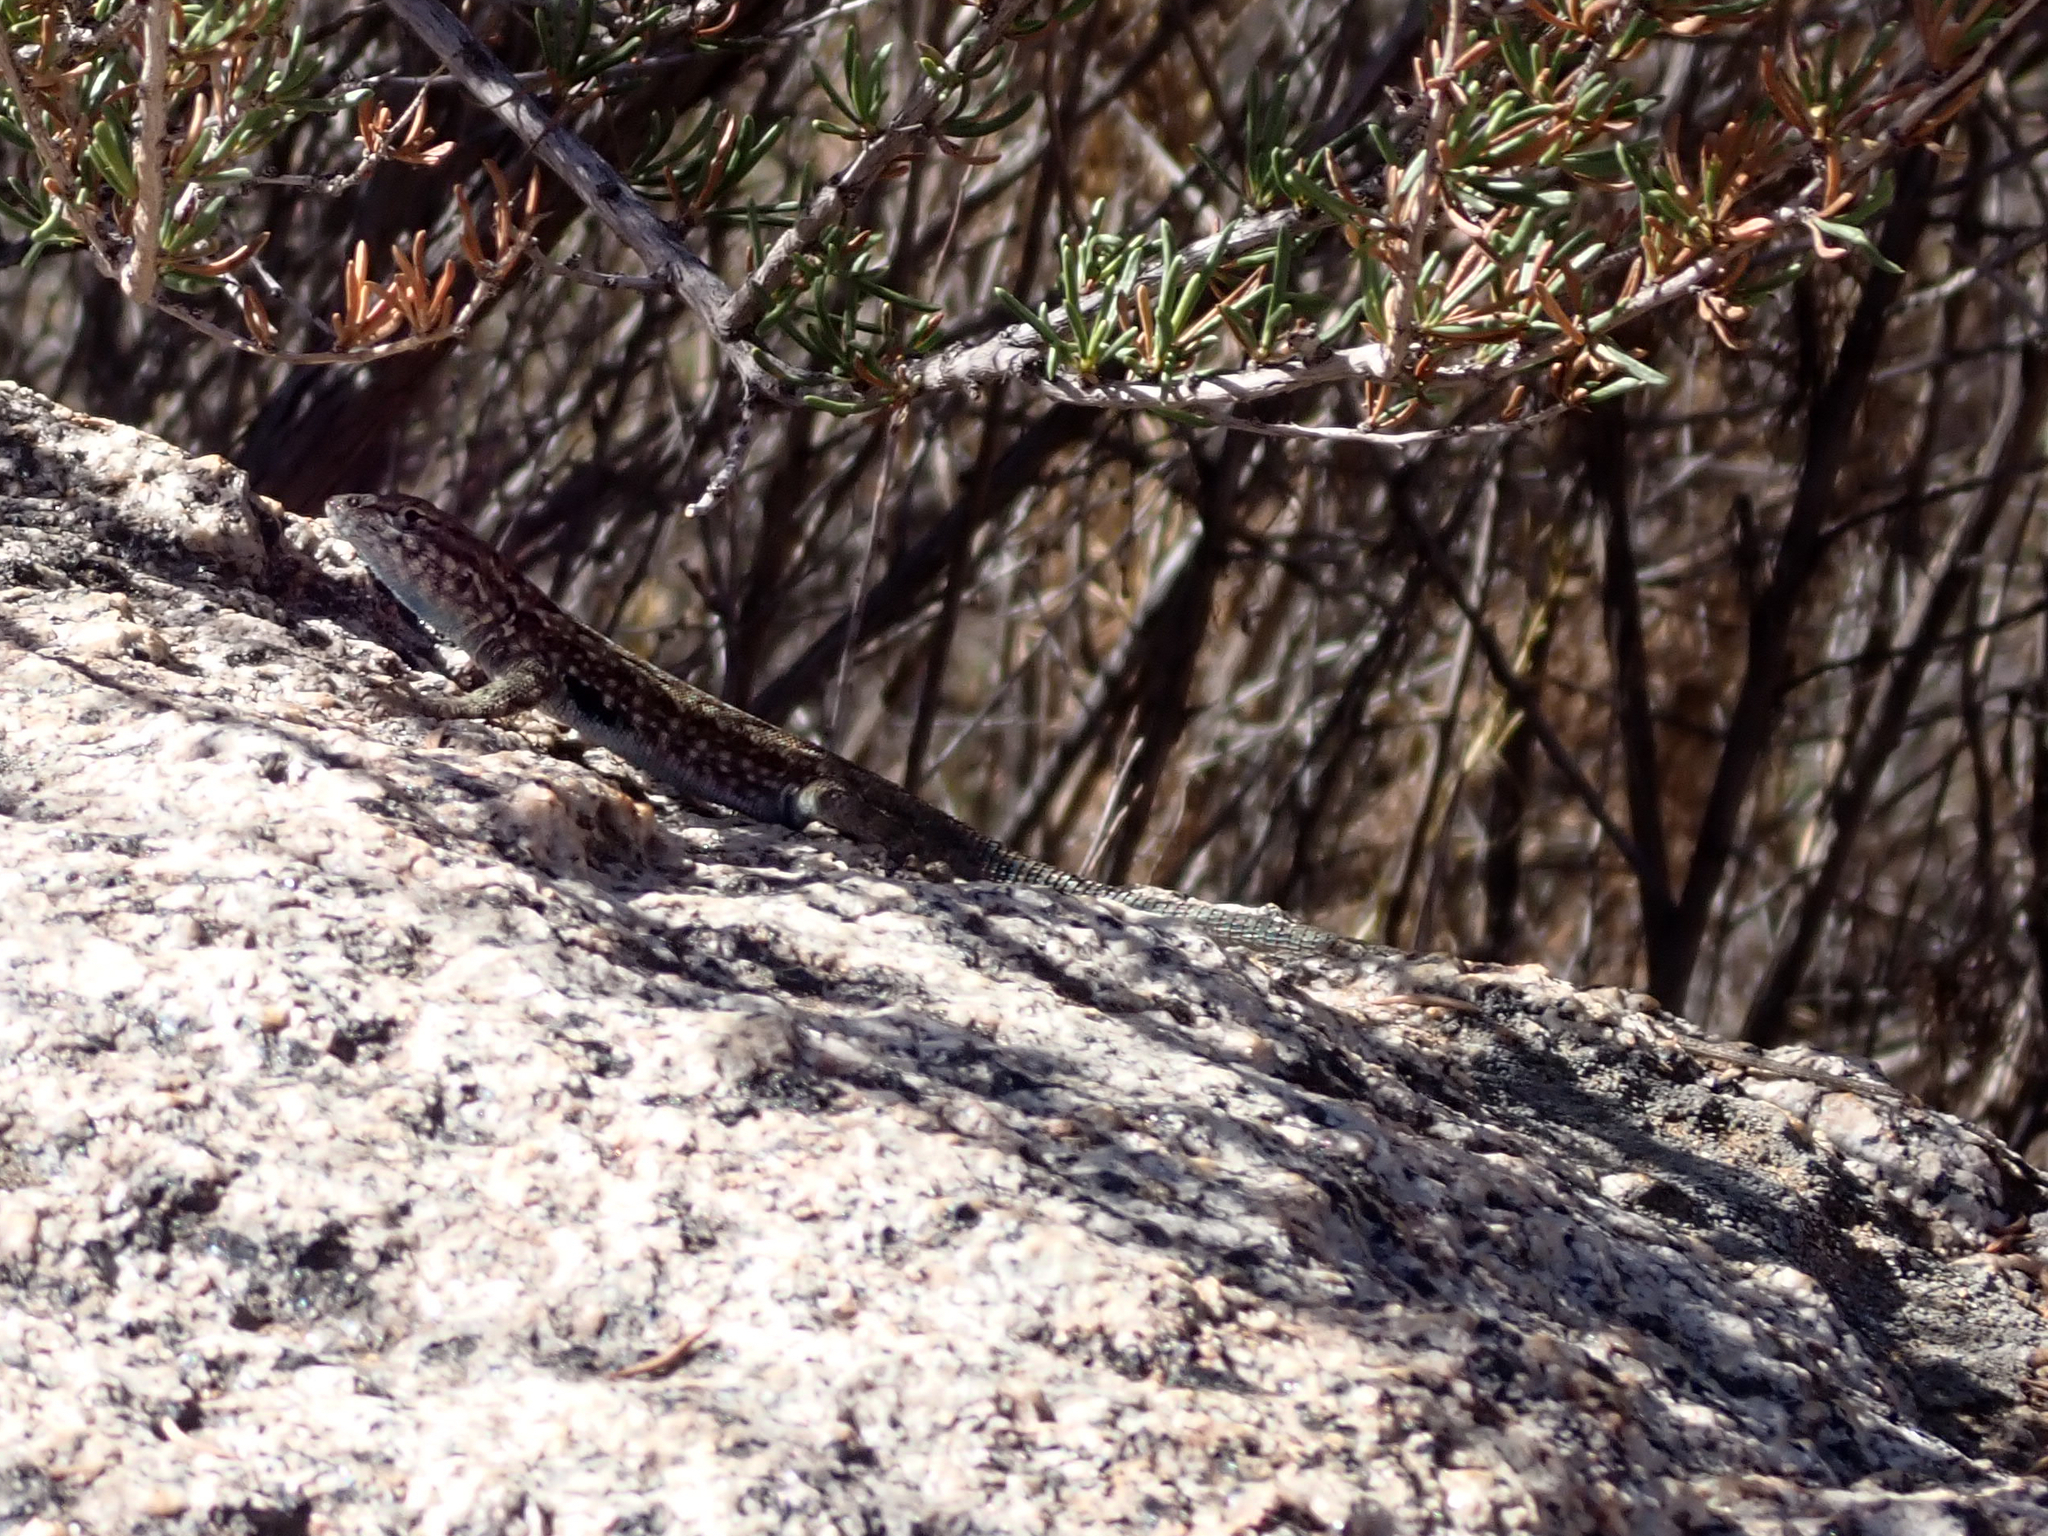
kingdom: Animalia
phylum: Chordata
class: Squamata
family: Phrynosomatidae
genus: Uta
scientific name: Uta stansburiana
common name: Side-blotched lizard
